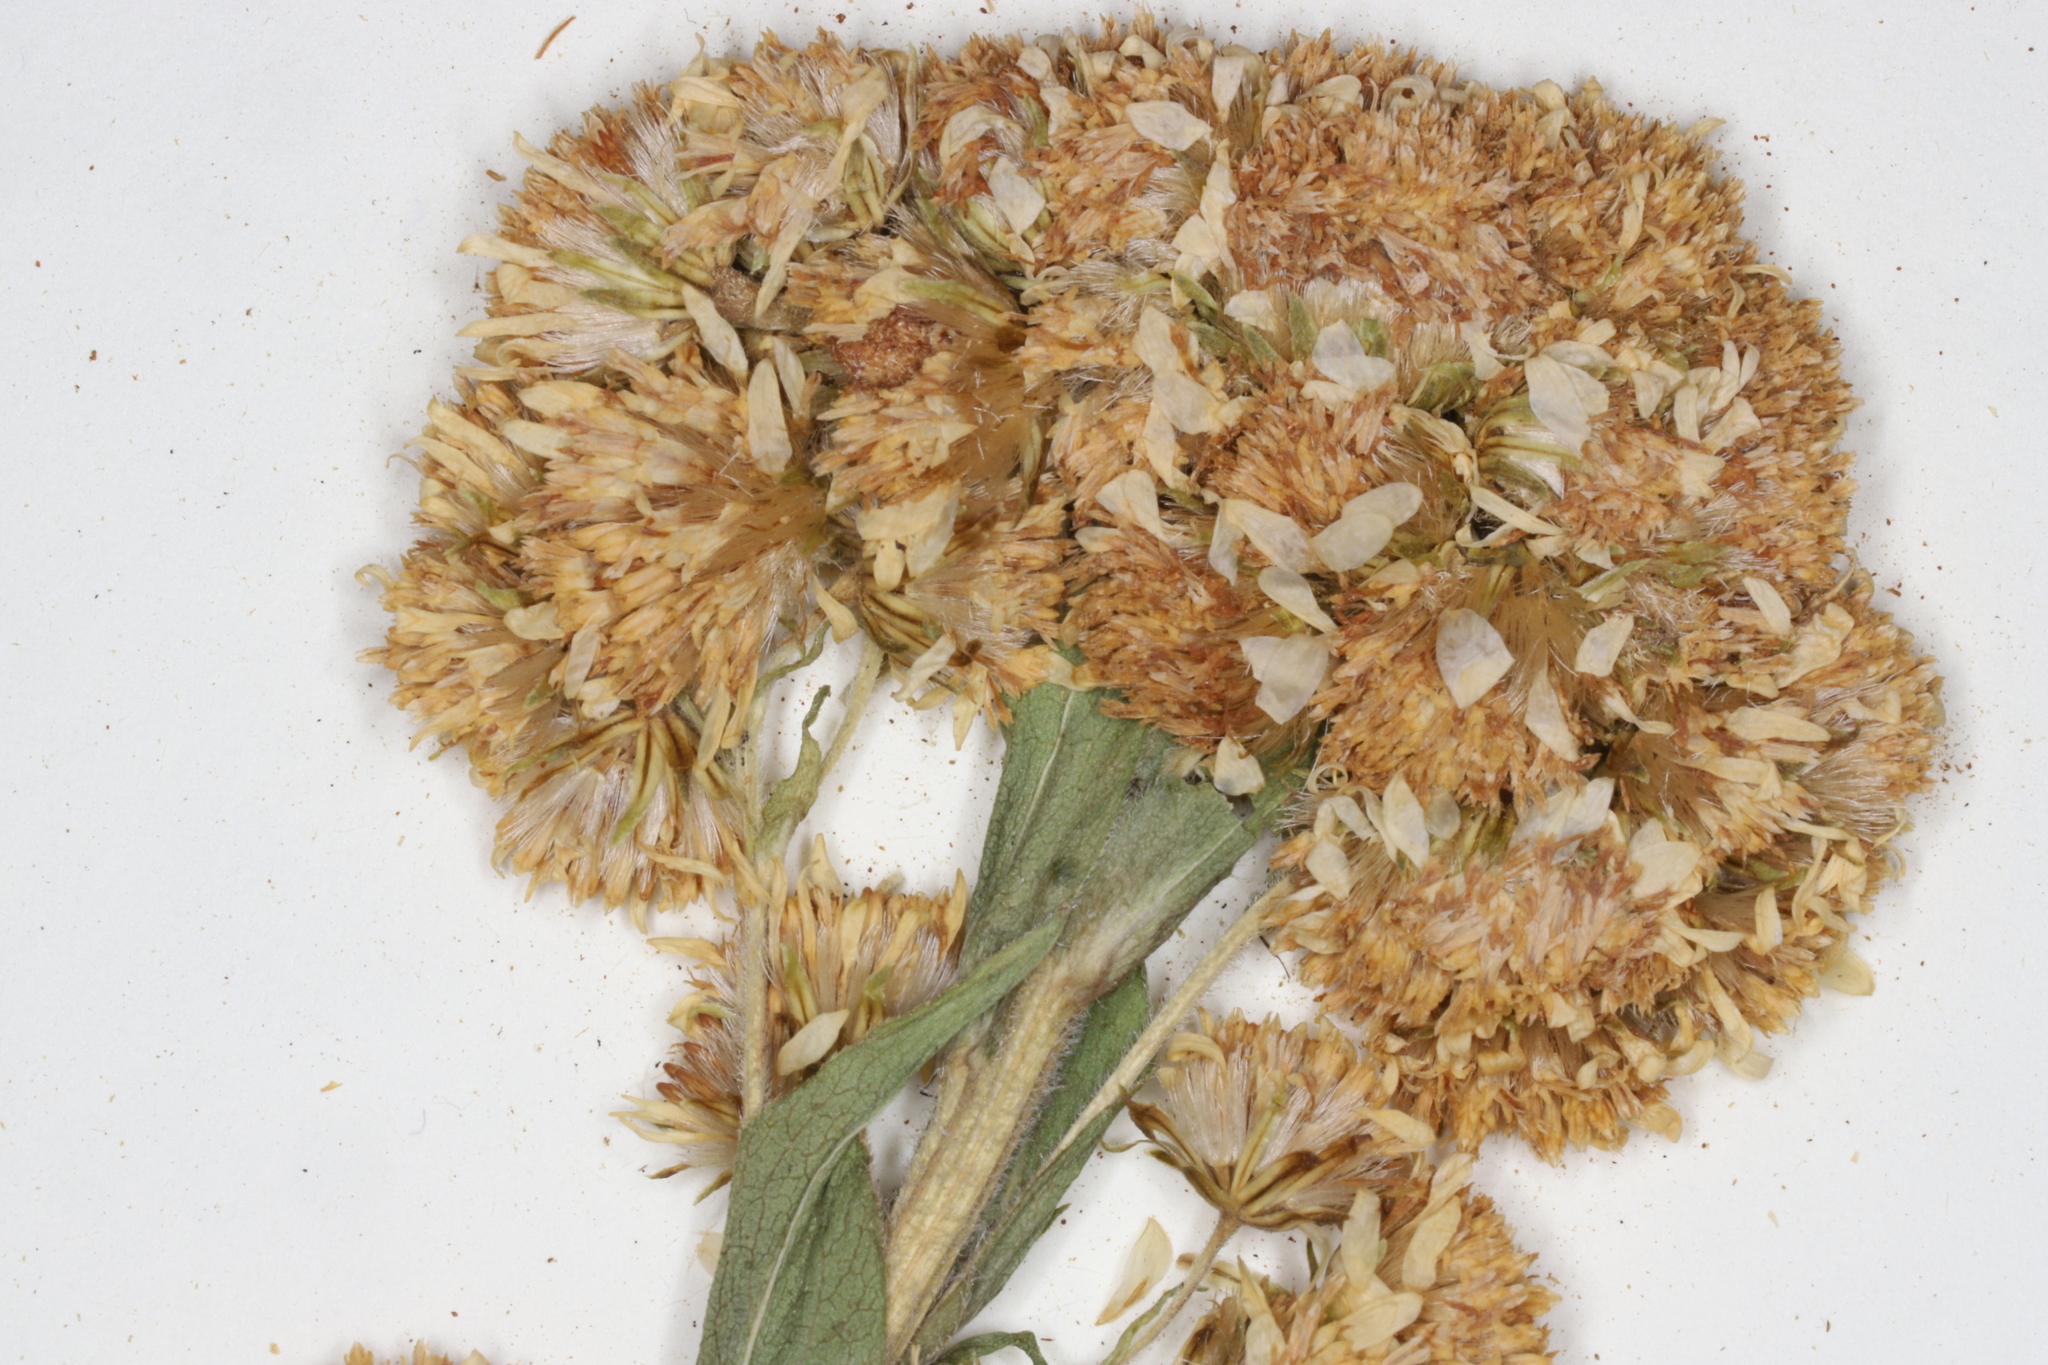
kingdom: Plantae
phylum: Tracheophyta
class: Magnoliopsida
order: Asterales
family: Asteraceae
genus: Solidago
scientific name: Solidago multiradiata
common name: Northern goldenrod
